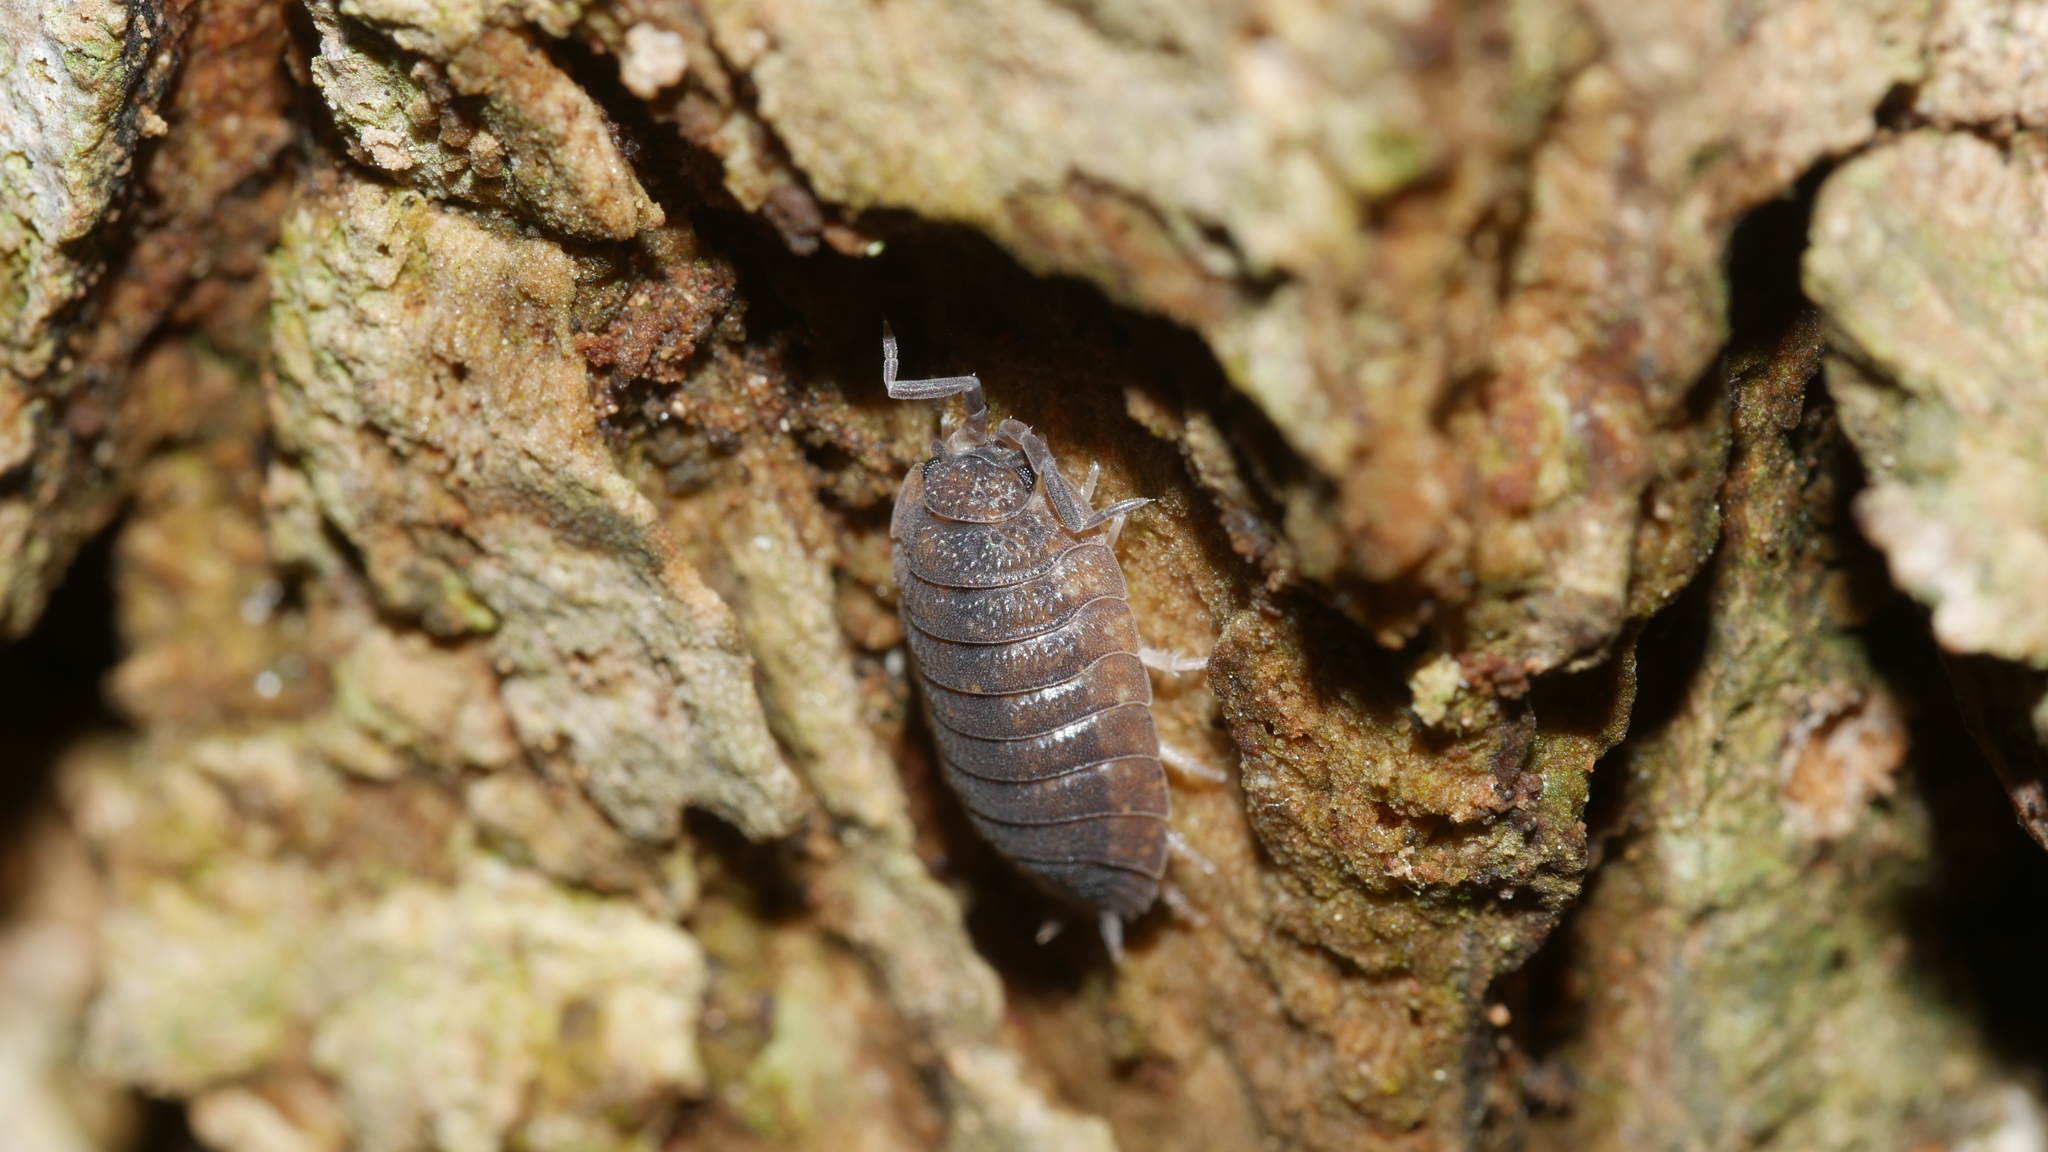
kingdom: Animalia
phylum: Arthropoda
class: Malacostraca
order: Isopoda
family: Porcellionidae
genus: Porcellio
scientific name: Porcellio scaber
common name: Common rough woodlouse
